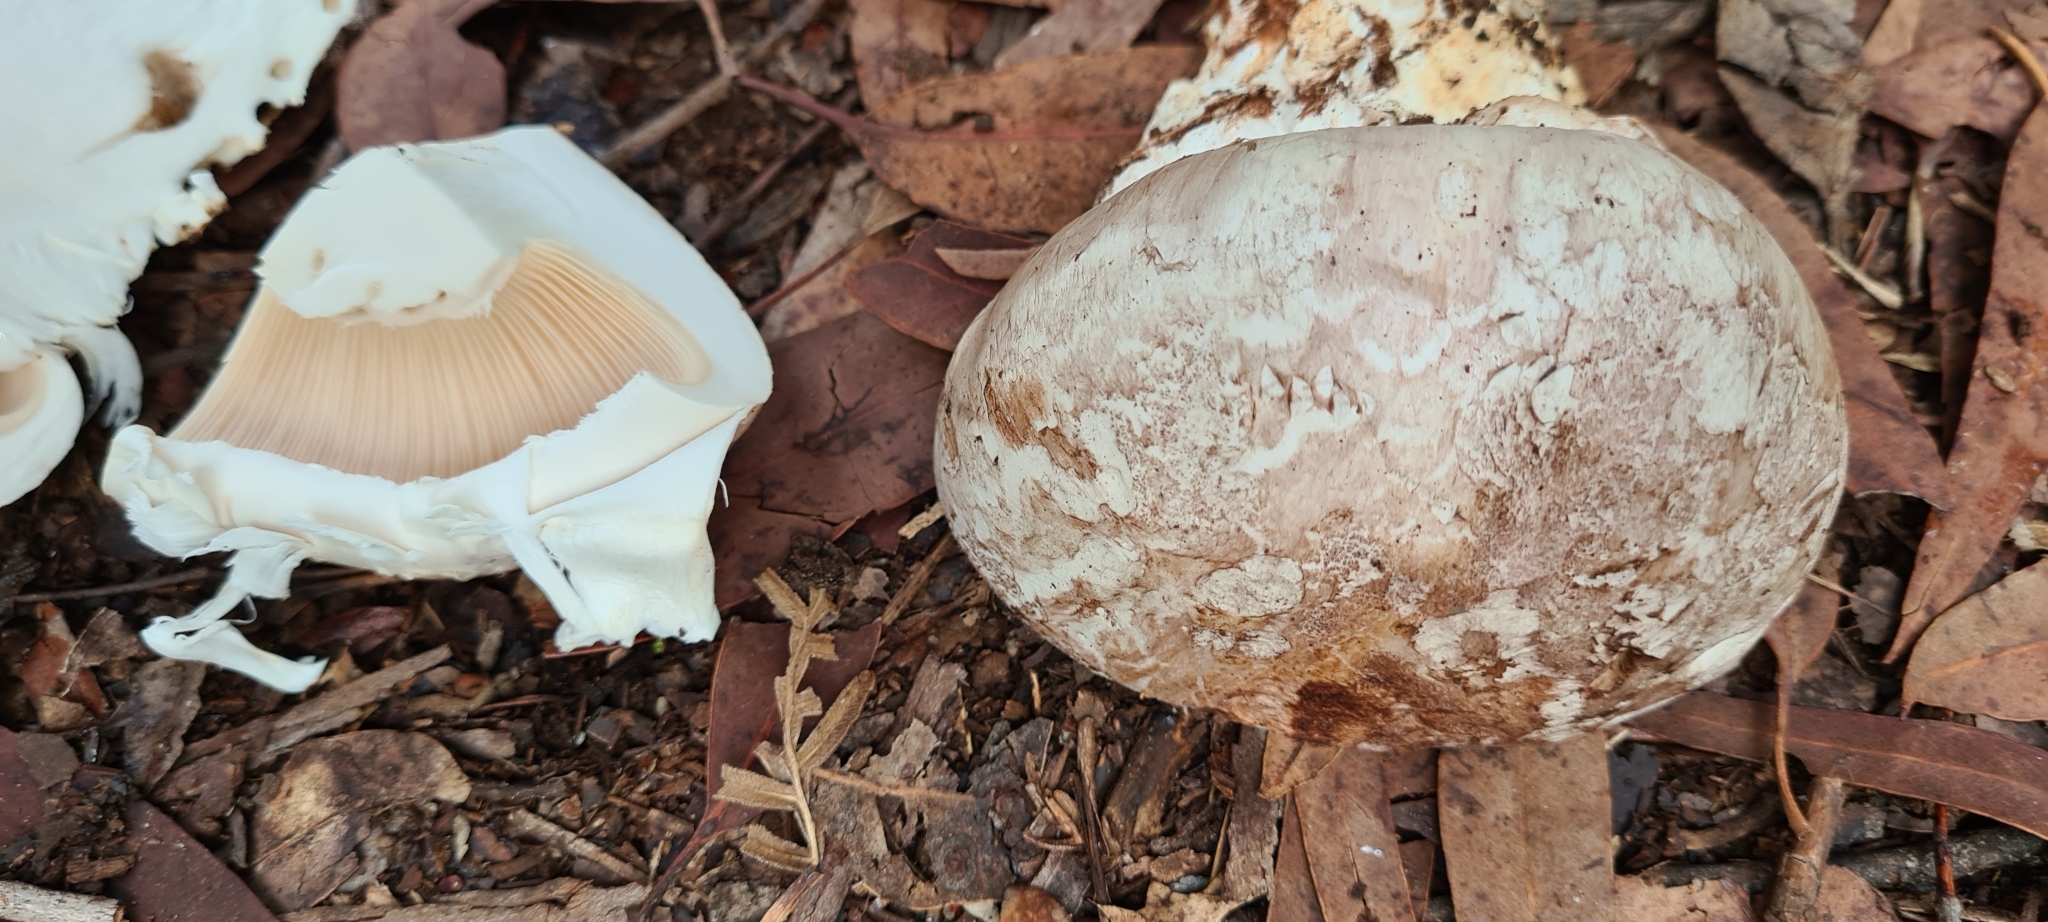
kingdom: Fungi
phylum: Basidiomycota
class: Agaricomycetes
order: Agaricales
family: Cortinariaceae
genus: Austrocortinarius
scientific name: Austrocortinarius australiensis
